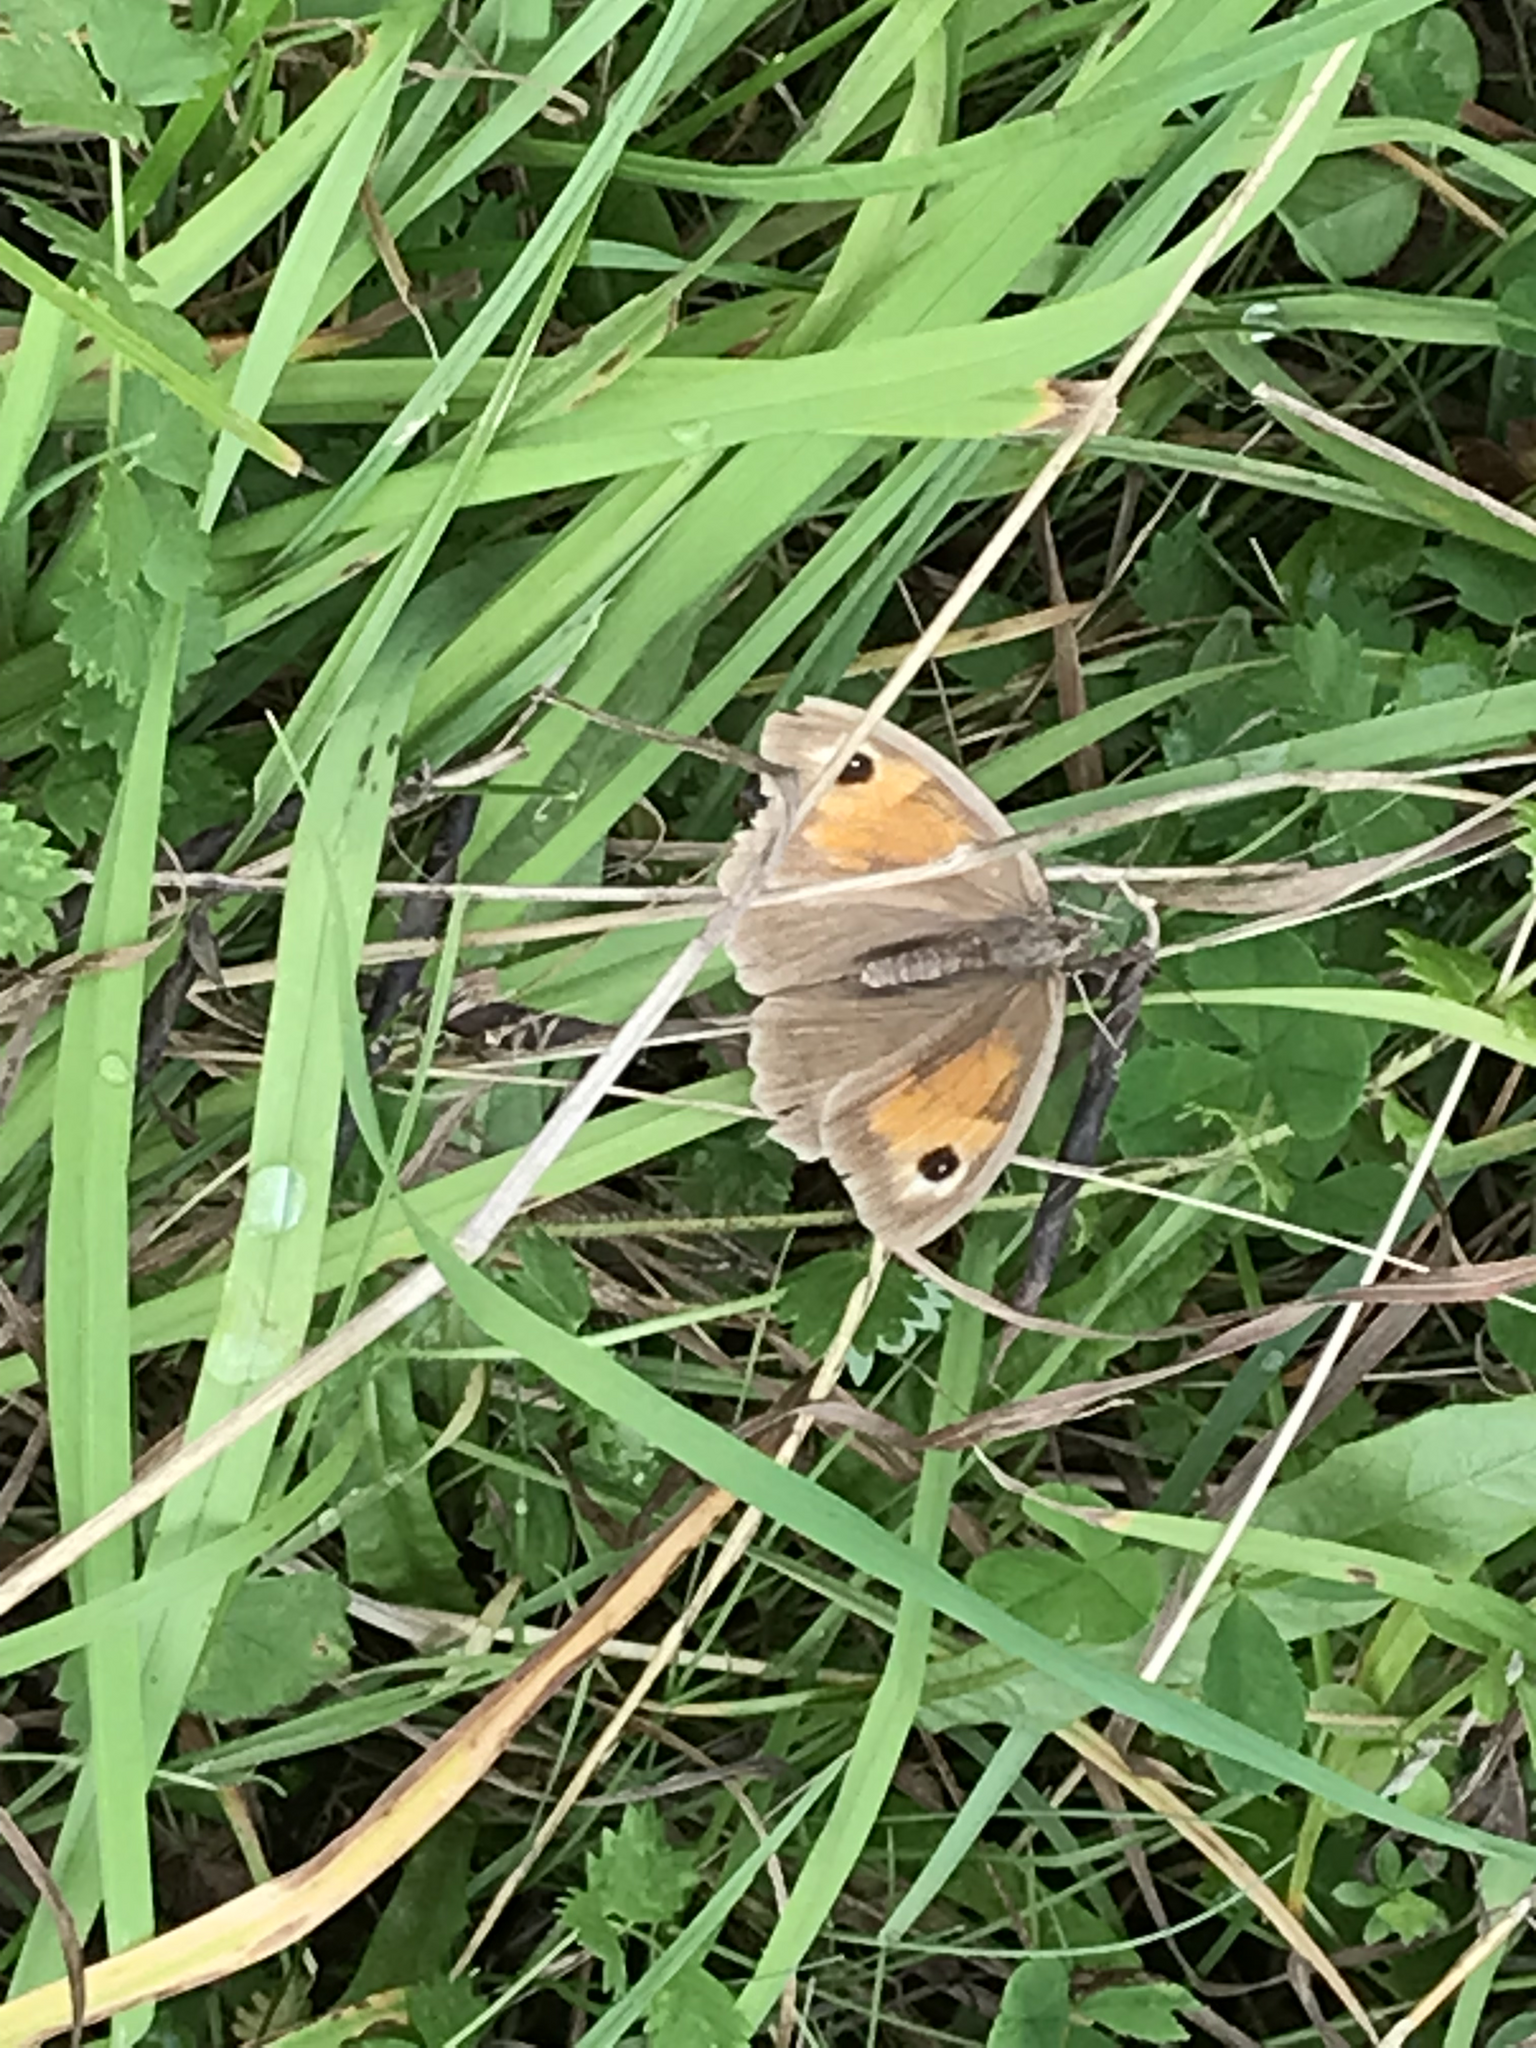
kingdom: Animalia
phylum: Arthropoda
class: Insecta
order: Lepidoptera
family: Nymphalidae
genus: Maniola
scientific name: Maniola jurtina
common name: Meadow brown
